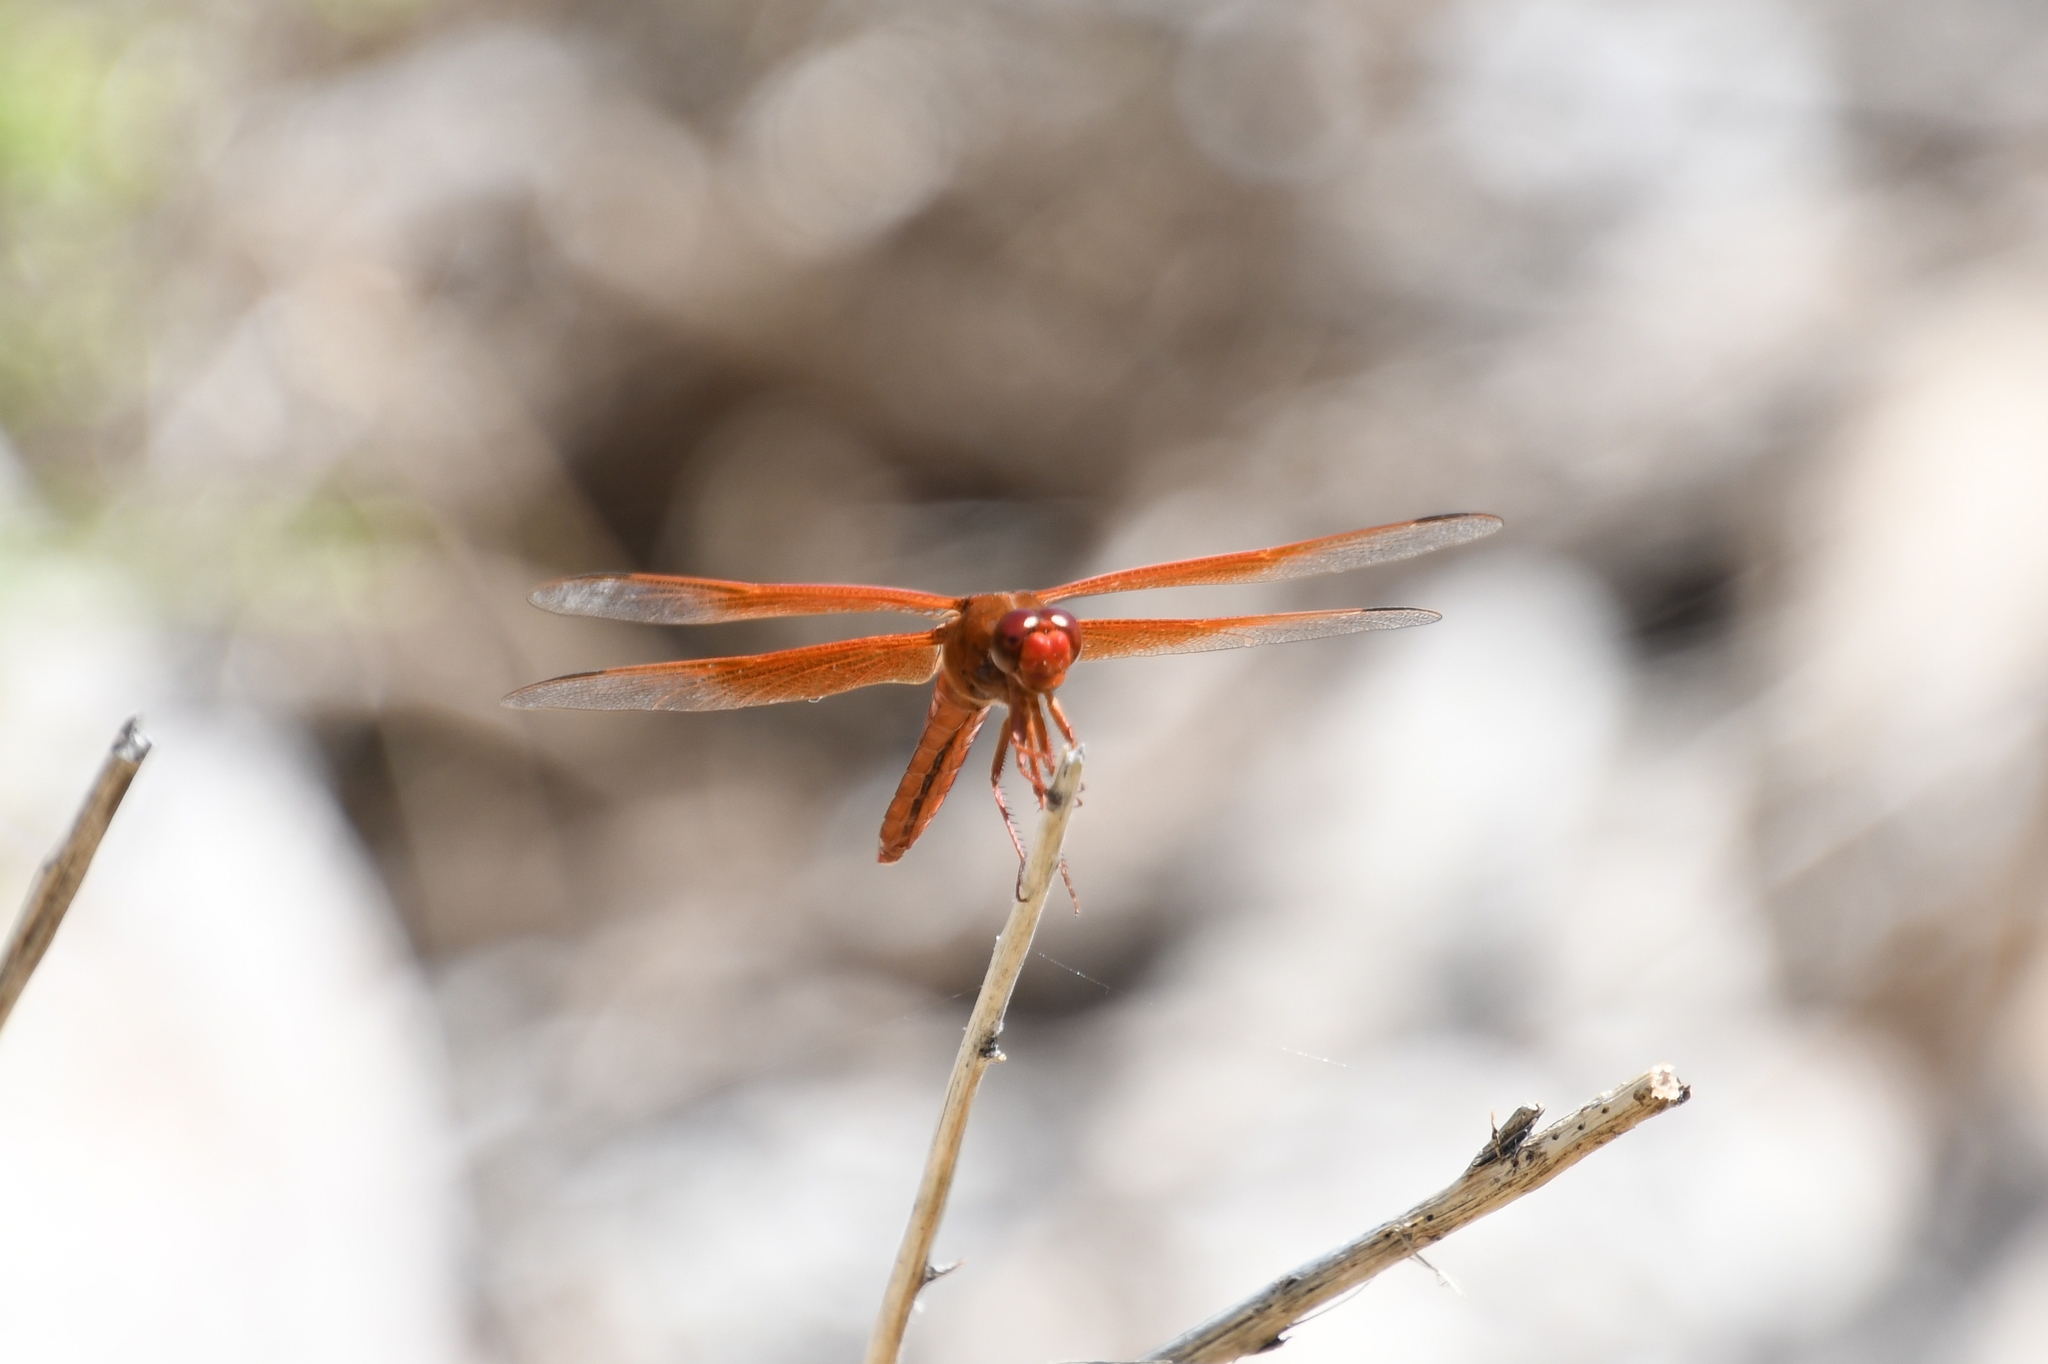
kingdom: Animalia
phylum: Arthropoda
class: Insecta
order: Odonata
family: Libellulidae
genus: Libellula
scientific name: Libellula saturata
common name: Flame skimmer
